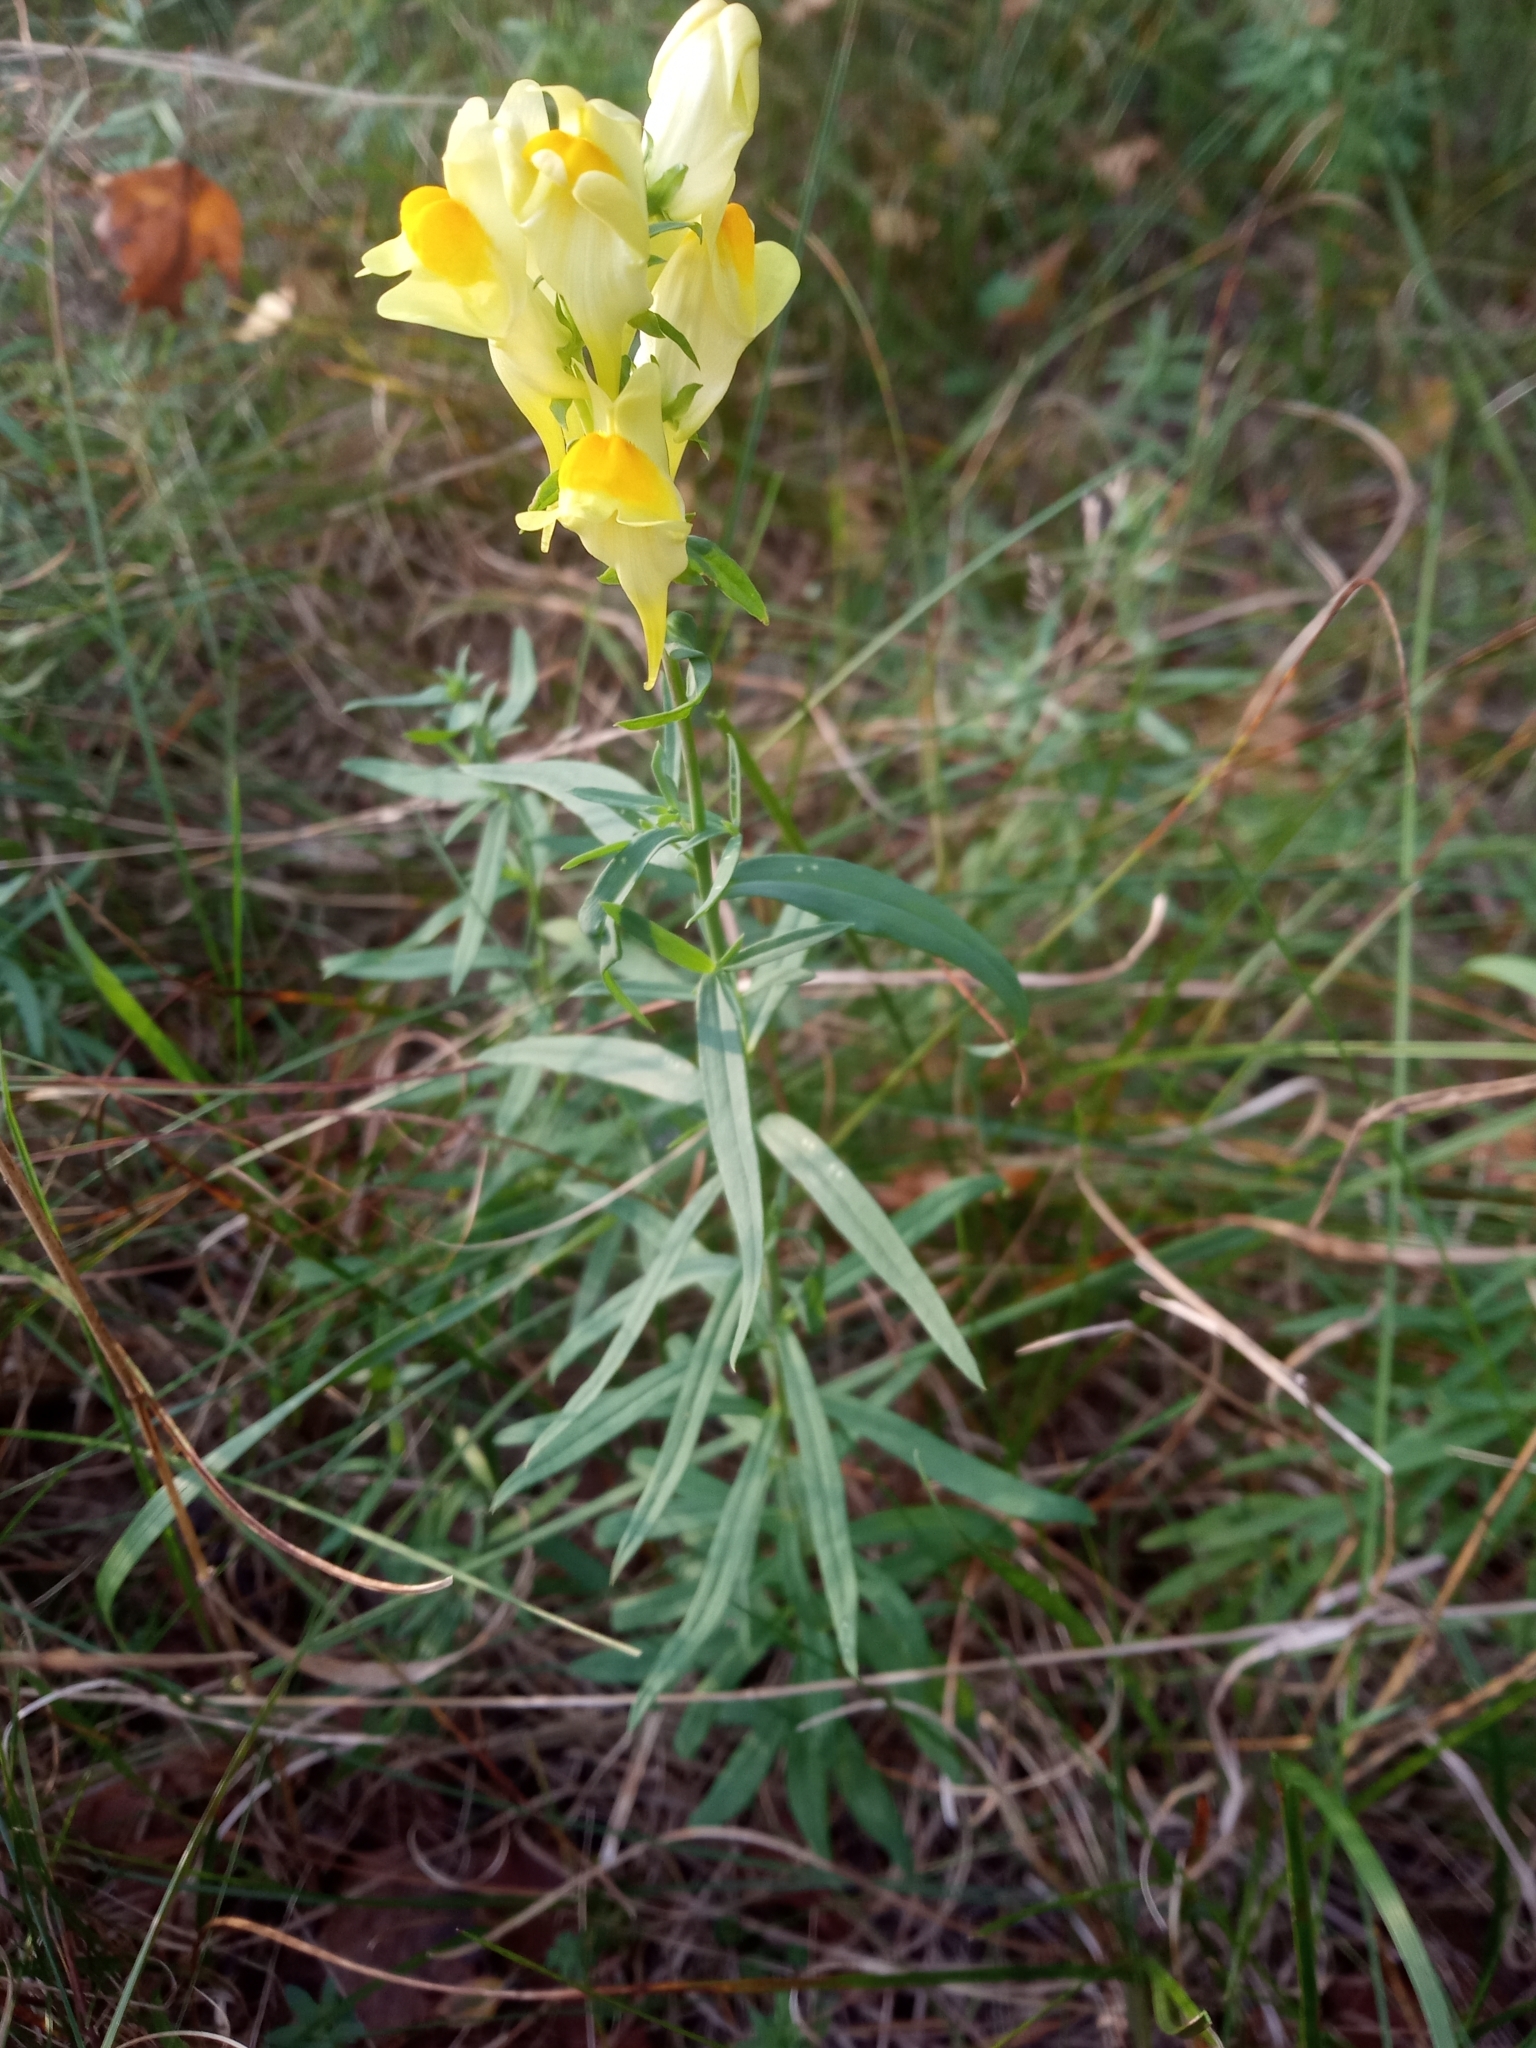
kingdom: Plantae
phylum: Tracheophyta
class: Magnoliopsida
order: Lamiales
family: Plantaginaceae
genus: Linaria
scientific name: Linaria vulgaris
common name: Butter and eggs
